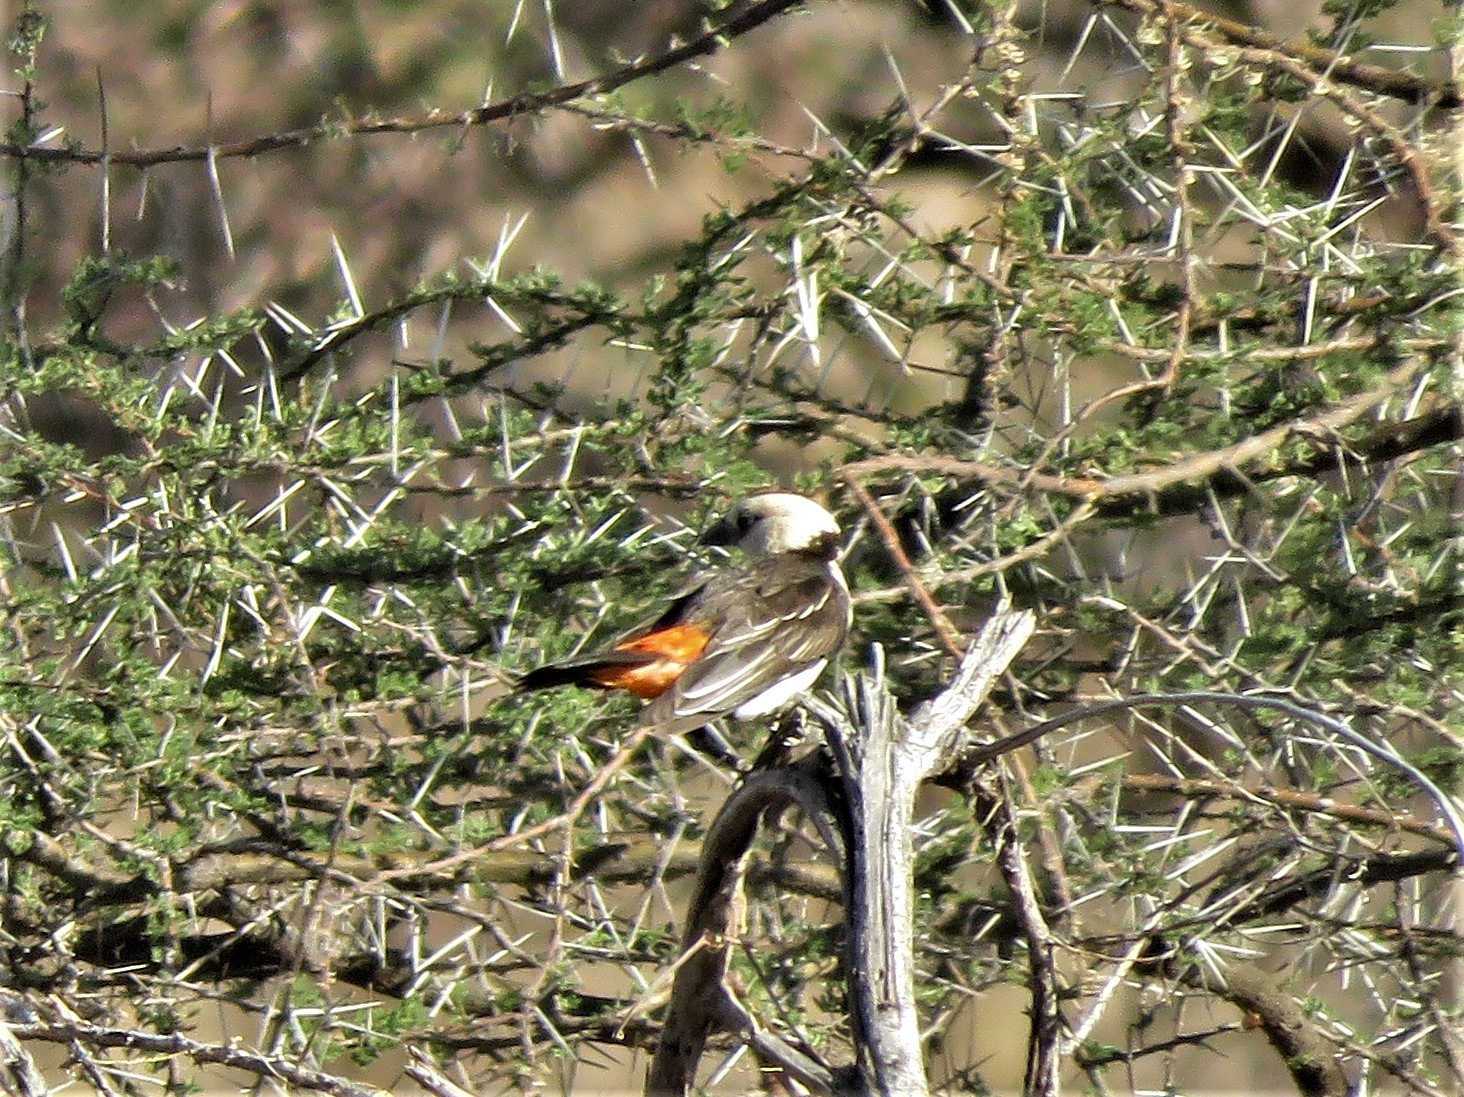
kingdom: Animalia
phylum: Chordata
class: Aves
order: Passeriformes
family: Ploceidae
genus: Dinemellia
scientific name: Dinemellia dinemelli
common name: White-headed buffalo weaver
